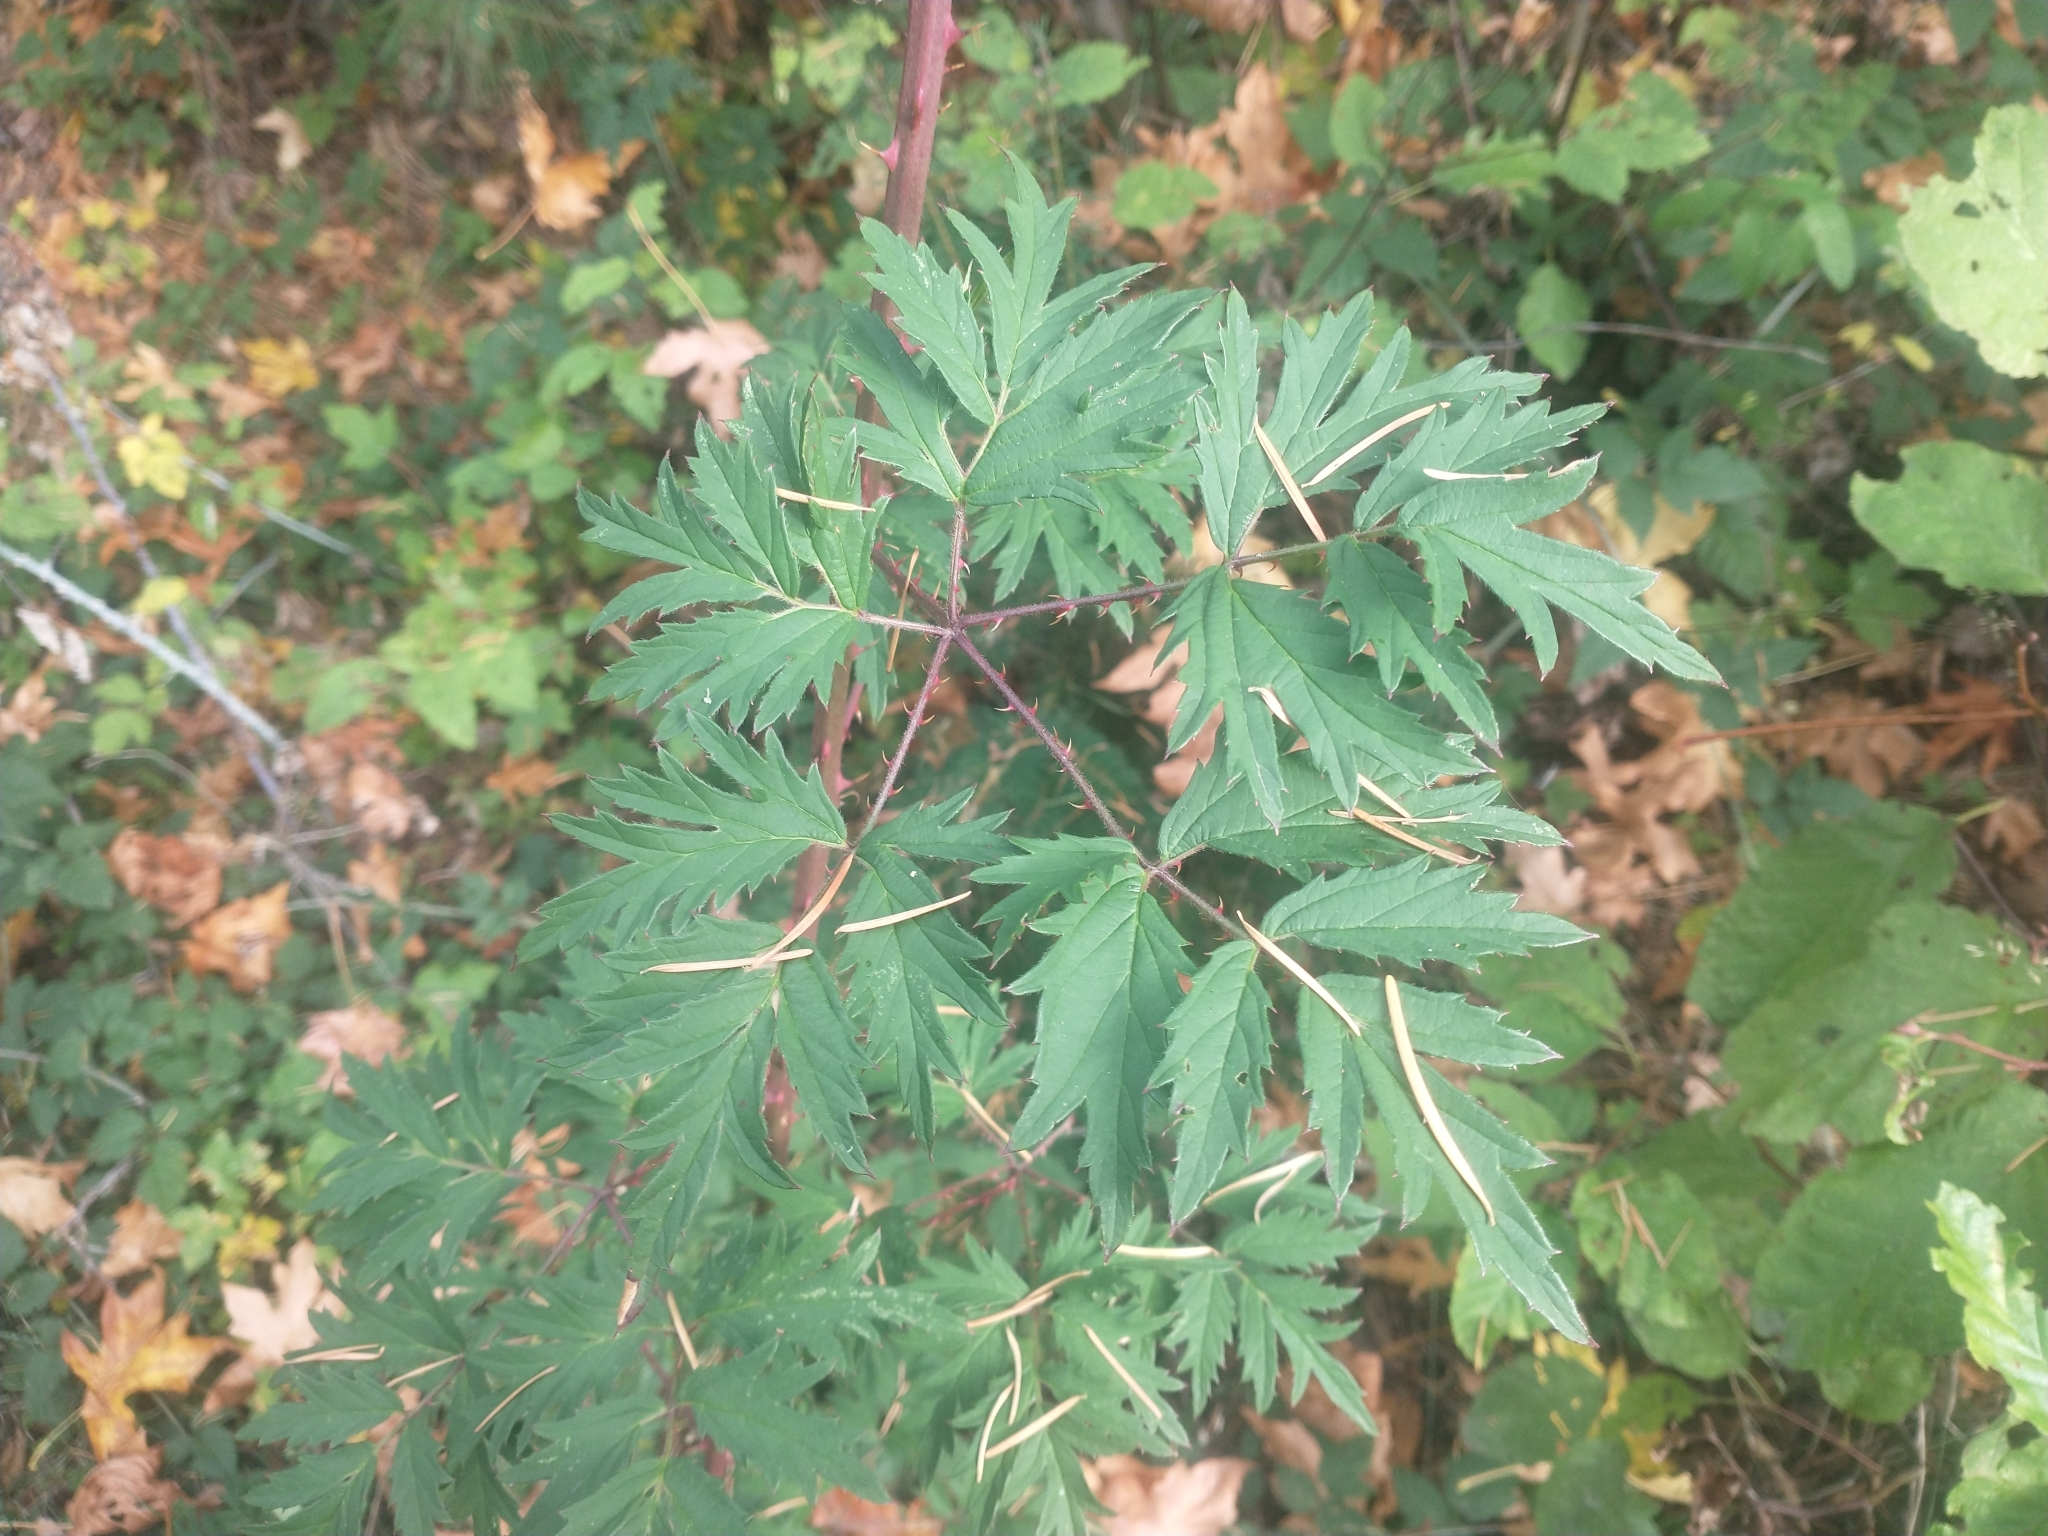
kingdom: Plantae
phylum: Tracheophyta
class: Magnoliopsida
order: Rosales
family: Rosaceae
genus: Rubus
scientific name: Rubus laciniatus
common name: Evergreen blackberry
